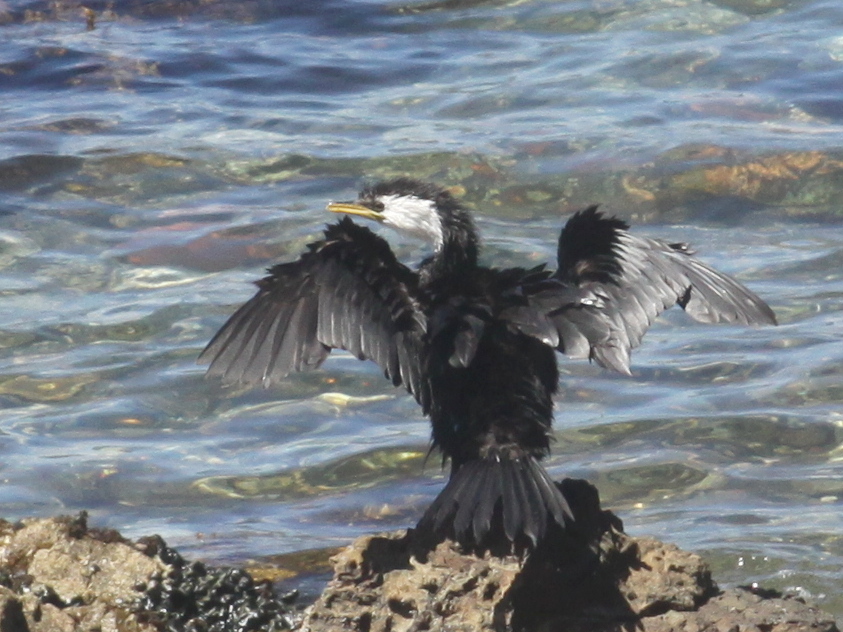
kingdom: Animalia
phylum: Chordata
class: Aves
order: Suliformes
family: Phalacrocoracidae
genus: Microcarbo
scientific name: Microcarbo melanoleucos
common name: Little pied cormorant
